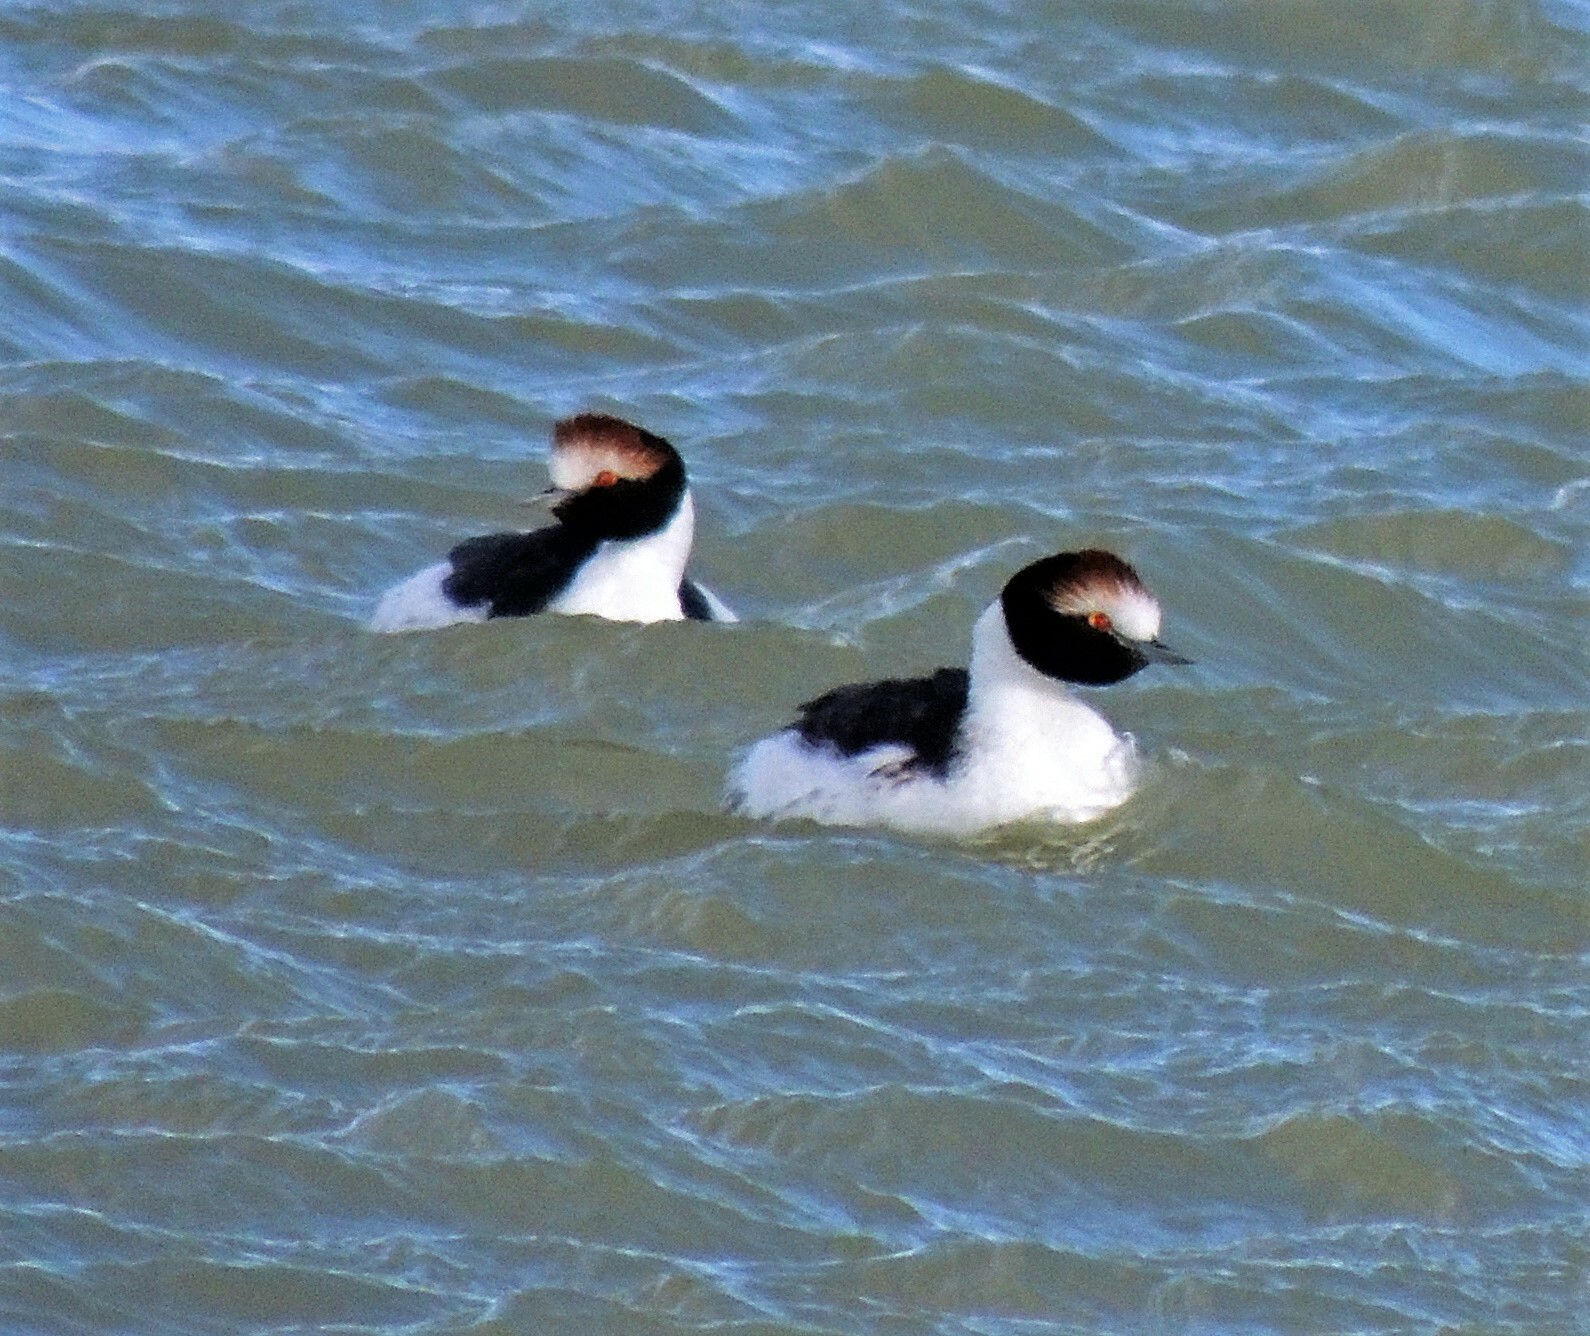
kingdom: Animalia
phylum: Chordata
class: Aves
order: Podicipediformes
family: Podicipedidae
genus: Podiceps
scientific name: Podiceps gallardoi
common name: Hooded grebe
